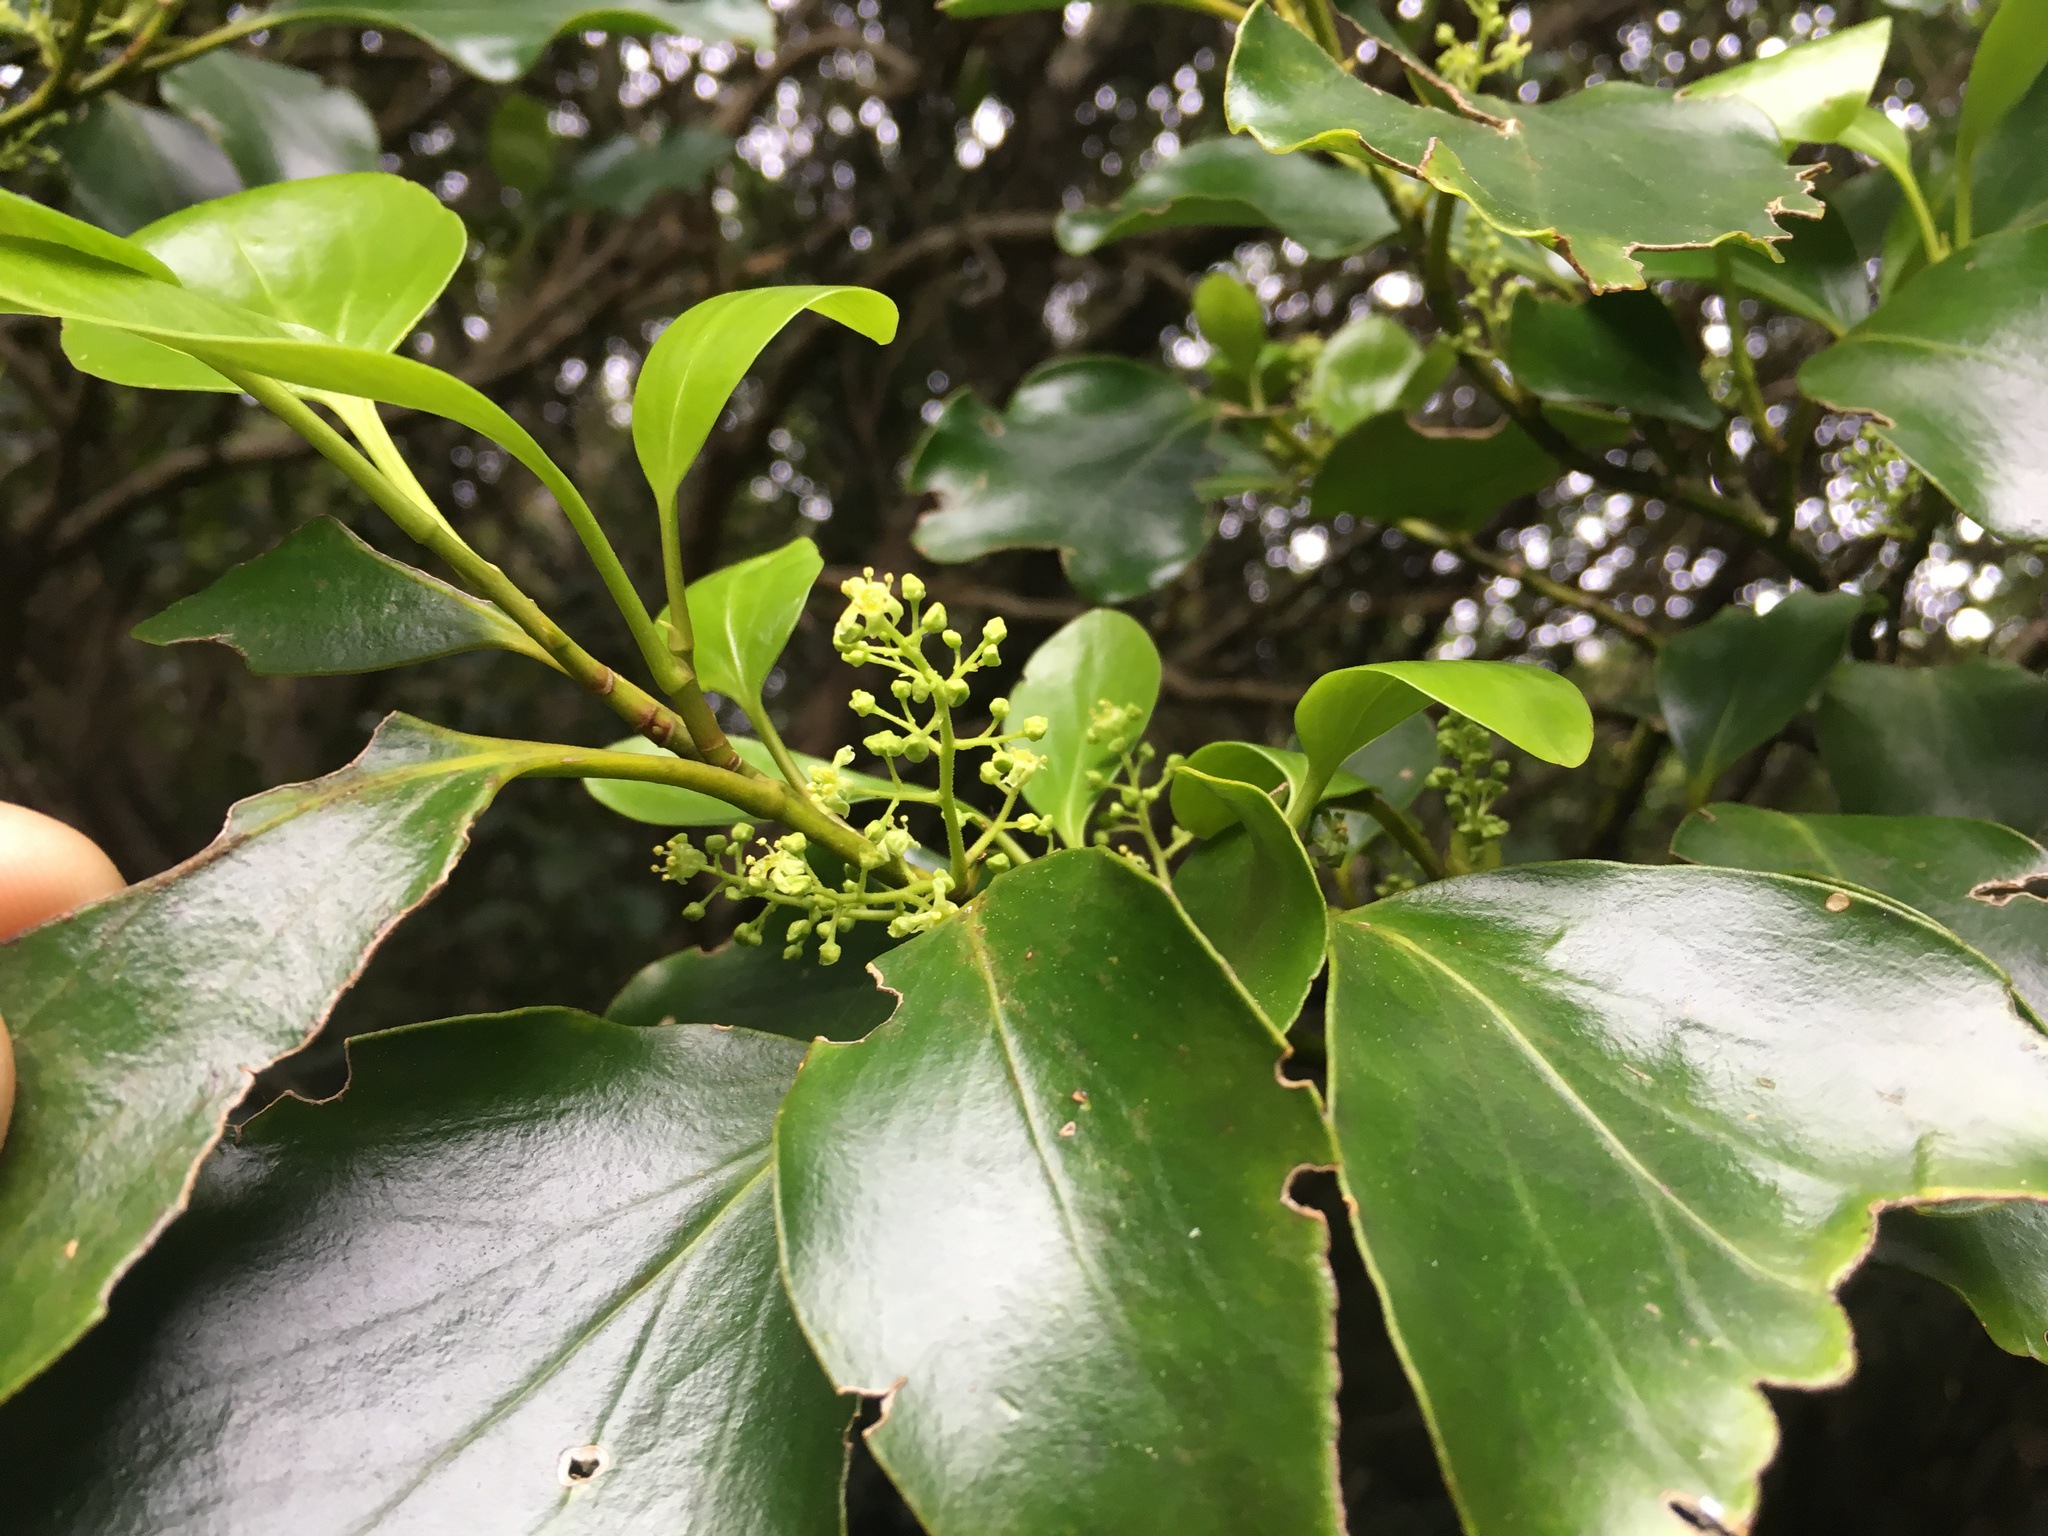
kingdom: Plantae
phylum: Tracheophyta
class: Magnoliopsida
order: Apiales
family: Griseliniaceae
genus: Griselinia
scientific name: Griselinia littoralis
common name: New zealand broadleaf
